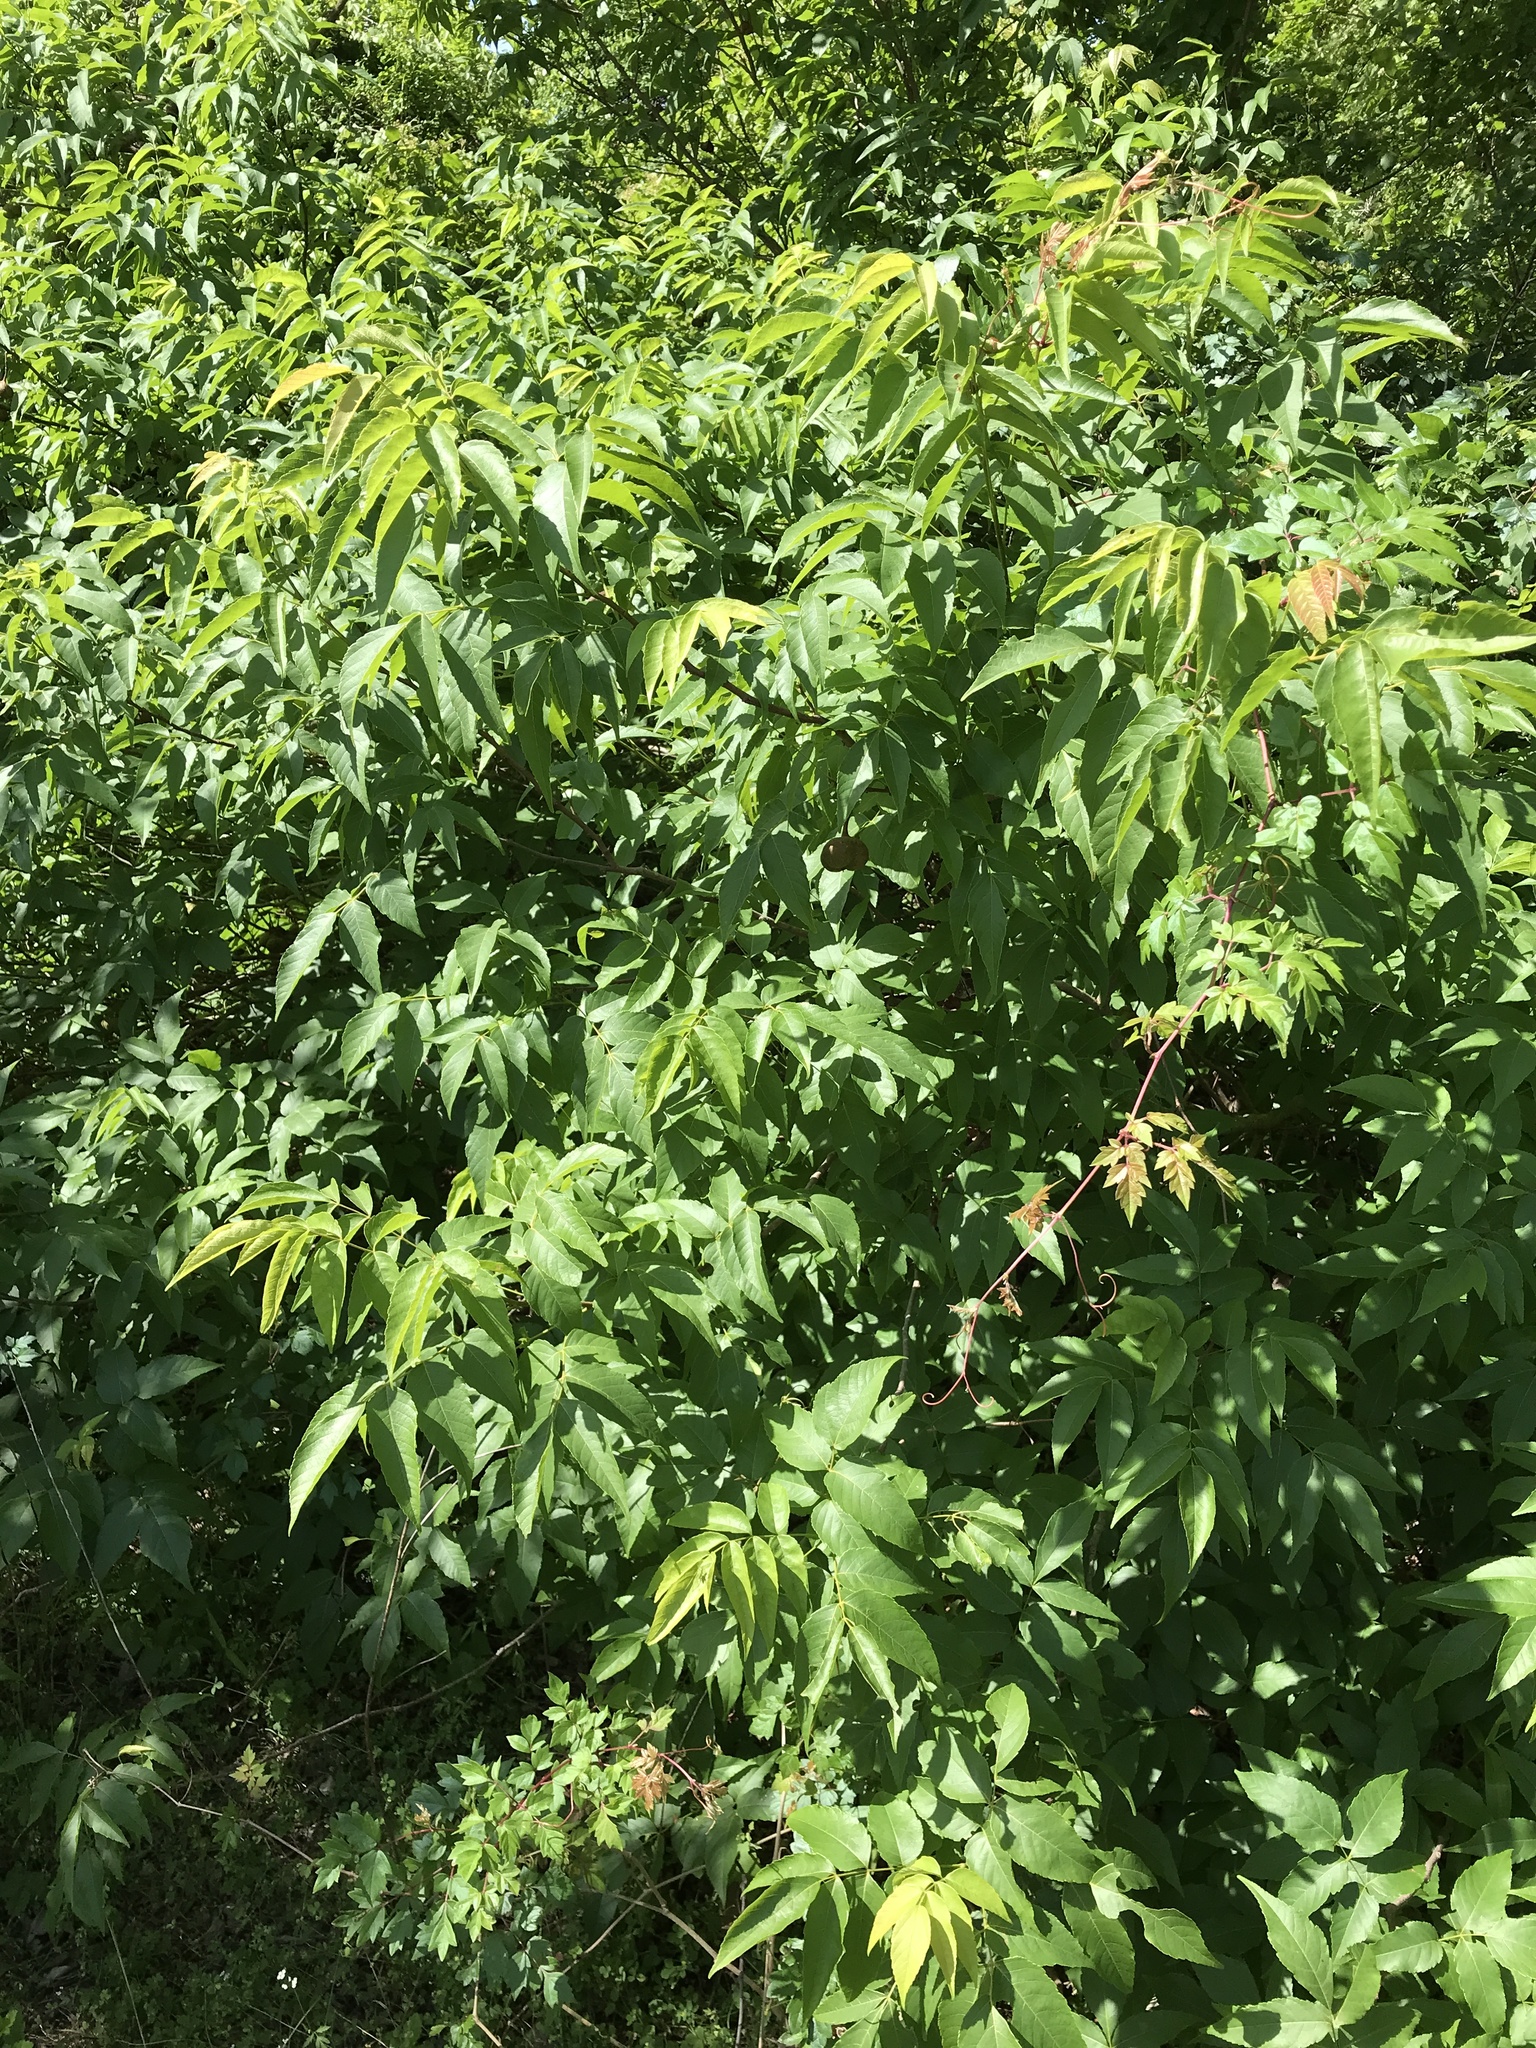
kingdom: Plantae
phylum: Tracheophyta
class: Magnoliopsida
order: Sapindales
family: Sapindaceae
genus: Ungnadia
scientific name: Ungnadia speciosa
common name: Texas-buckeye
